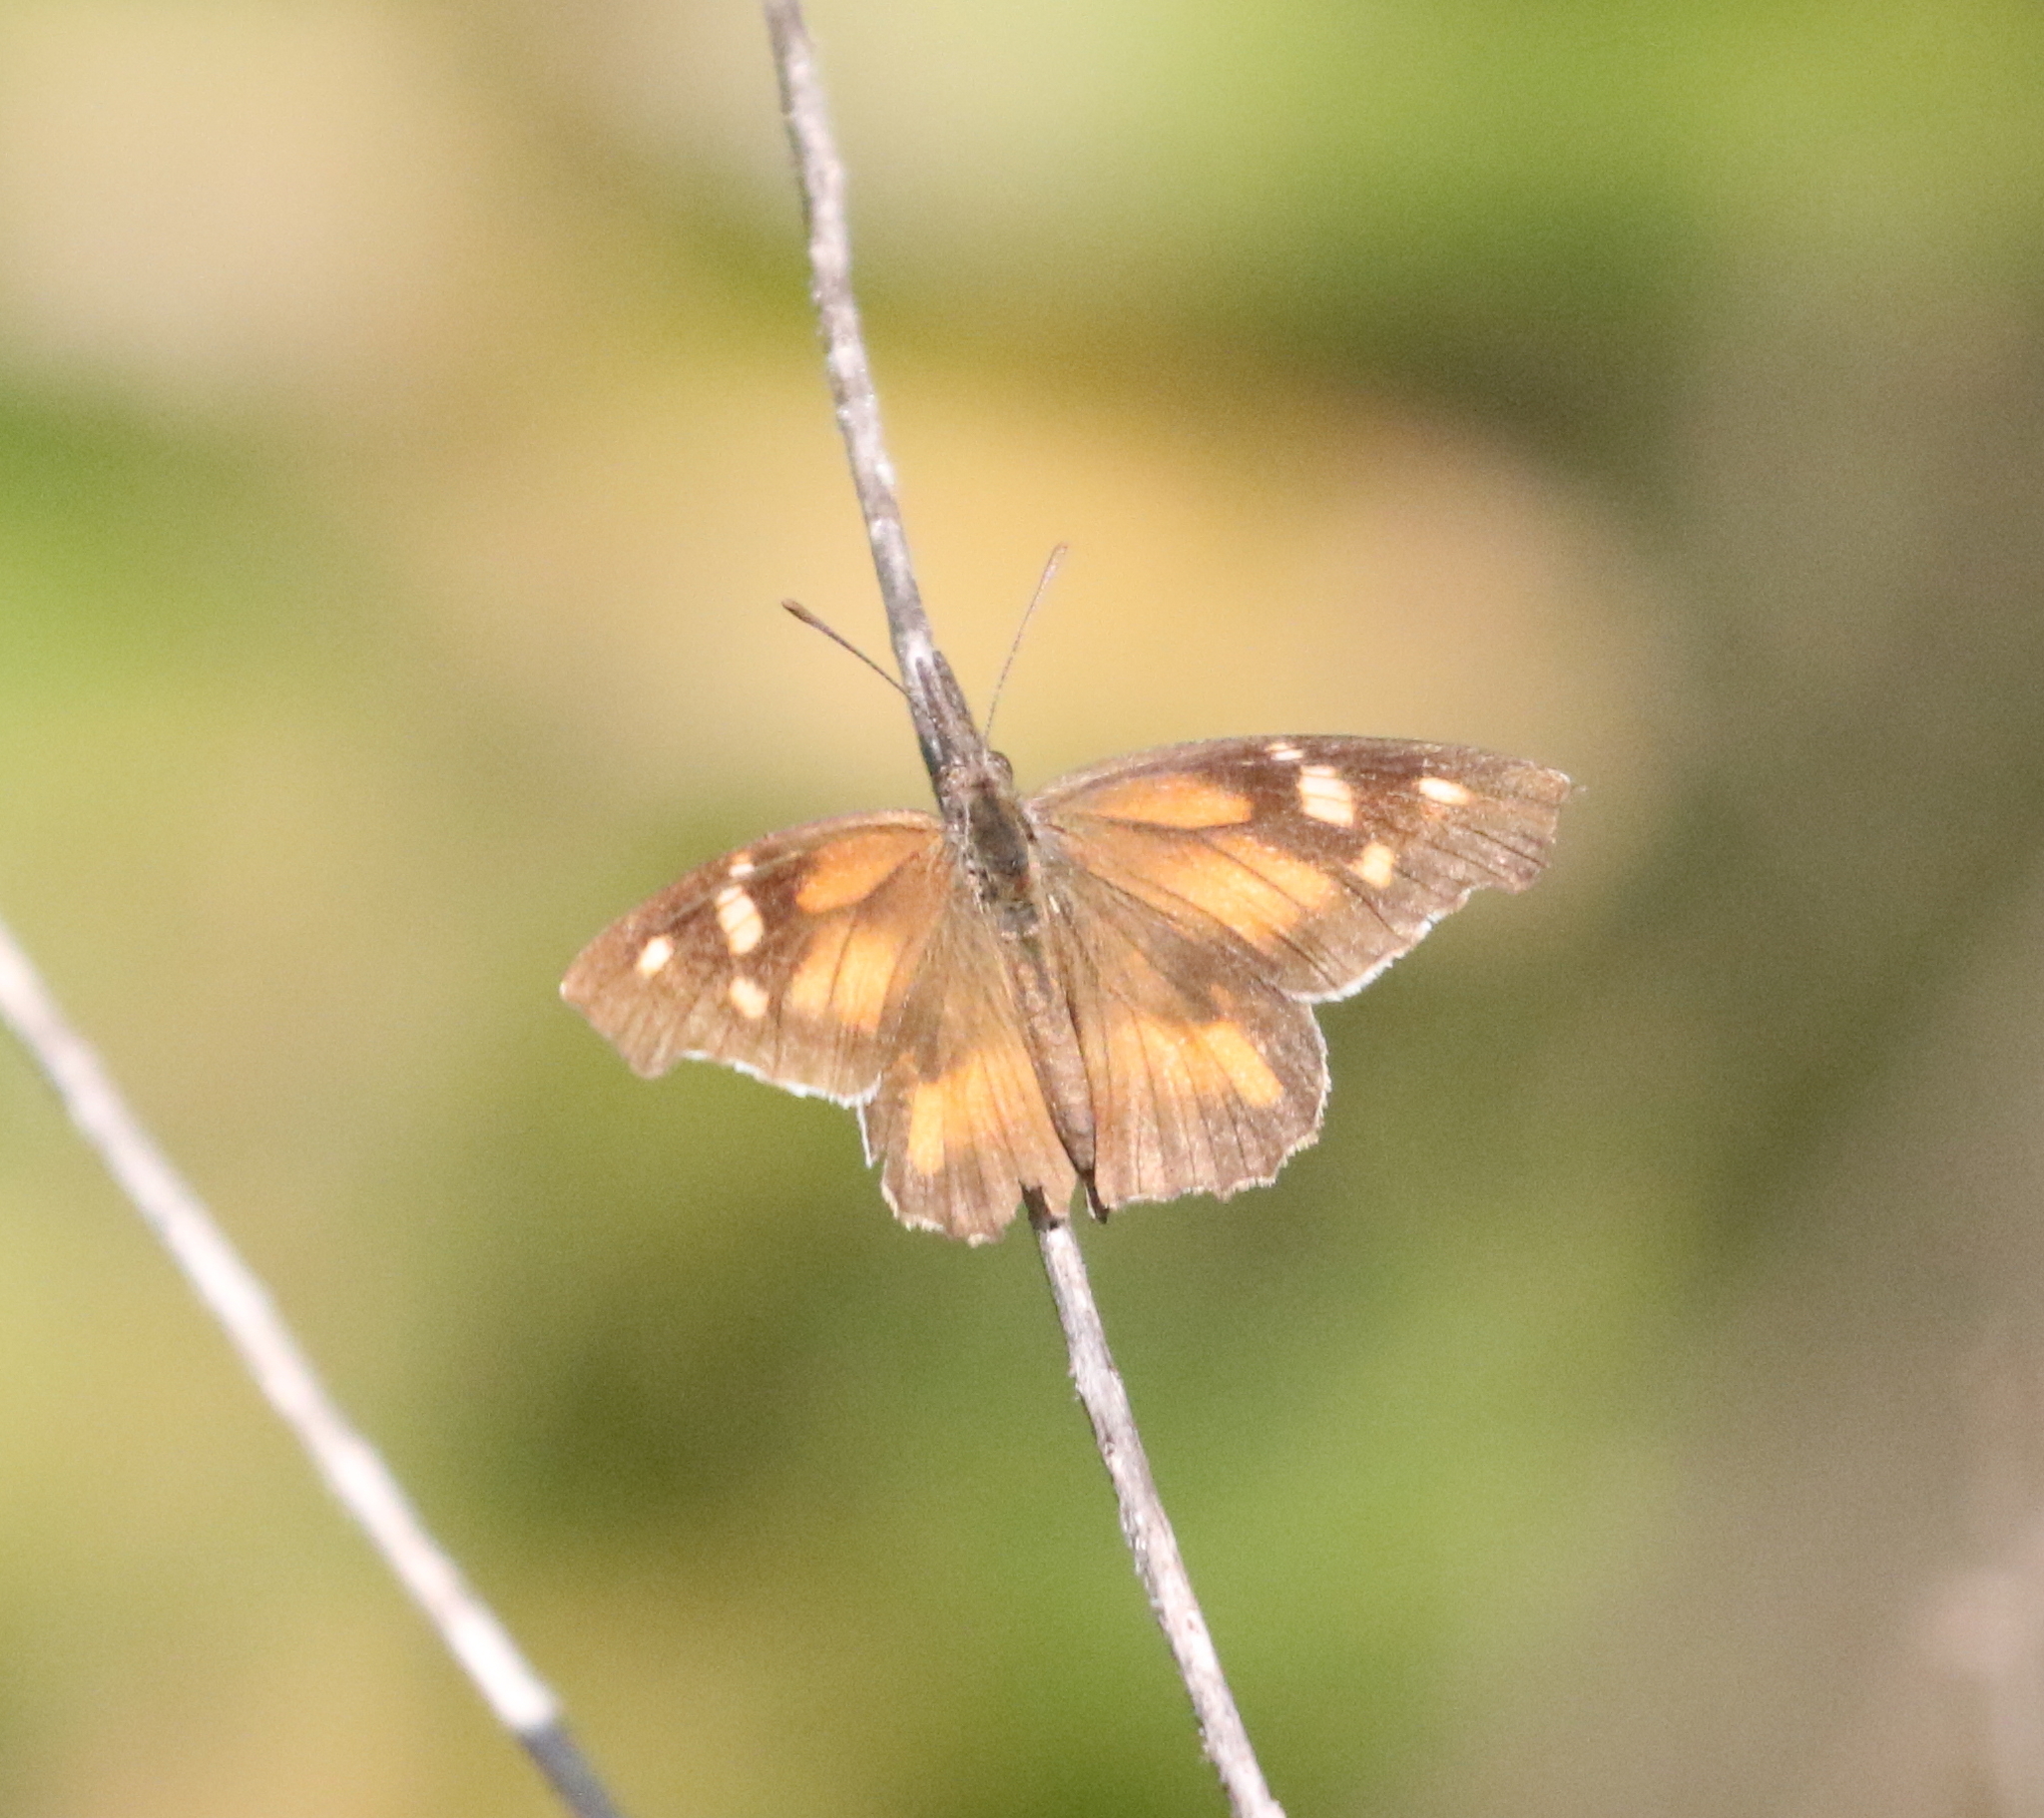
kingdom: Animalia
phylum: Arthropoda
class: Insecta
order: Lepidoptera
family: Nymphalidae
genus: Libytheana
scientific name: Libytheana carinenta
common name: American snout
